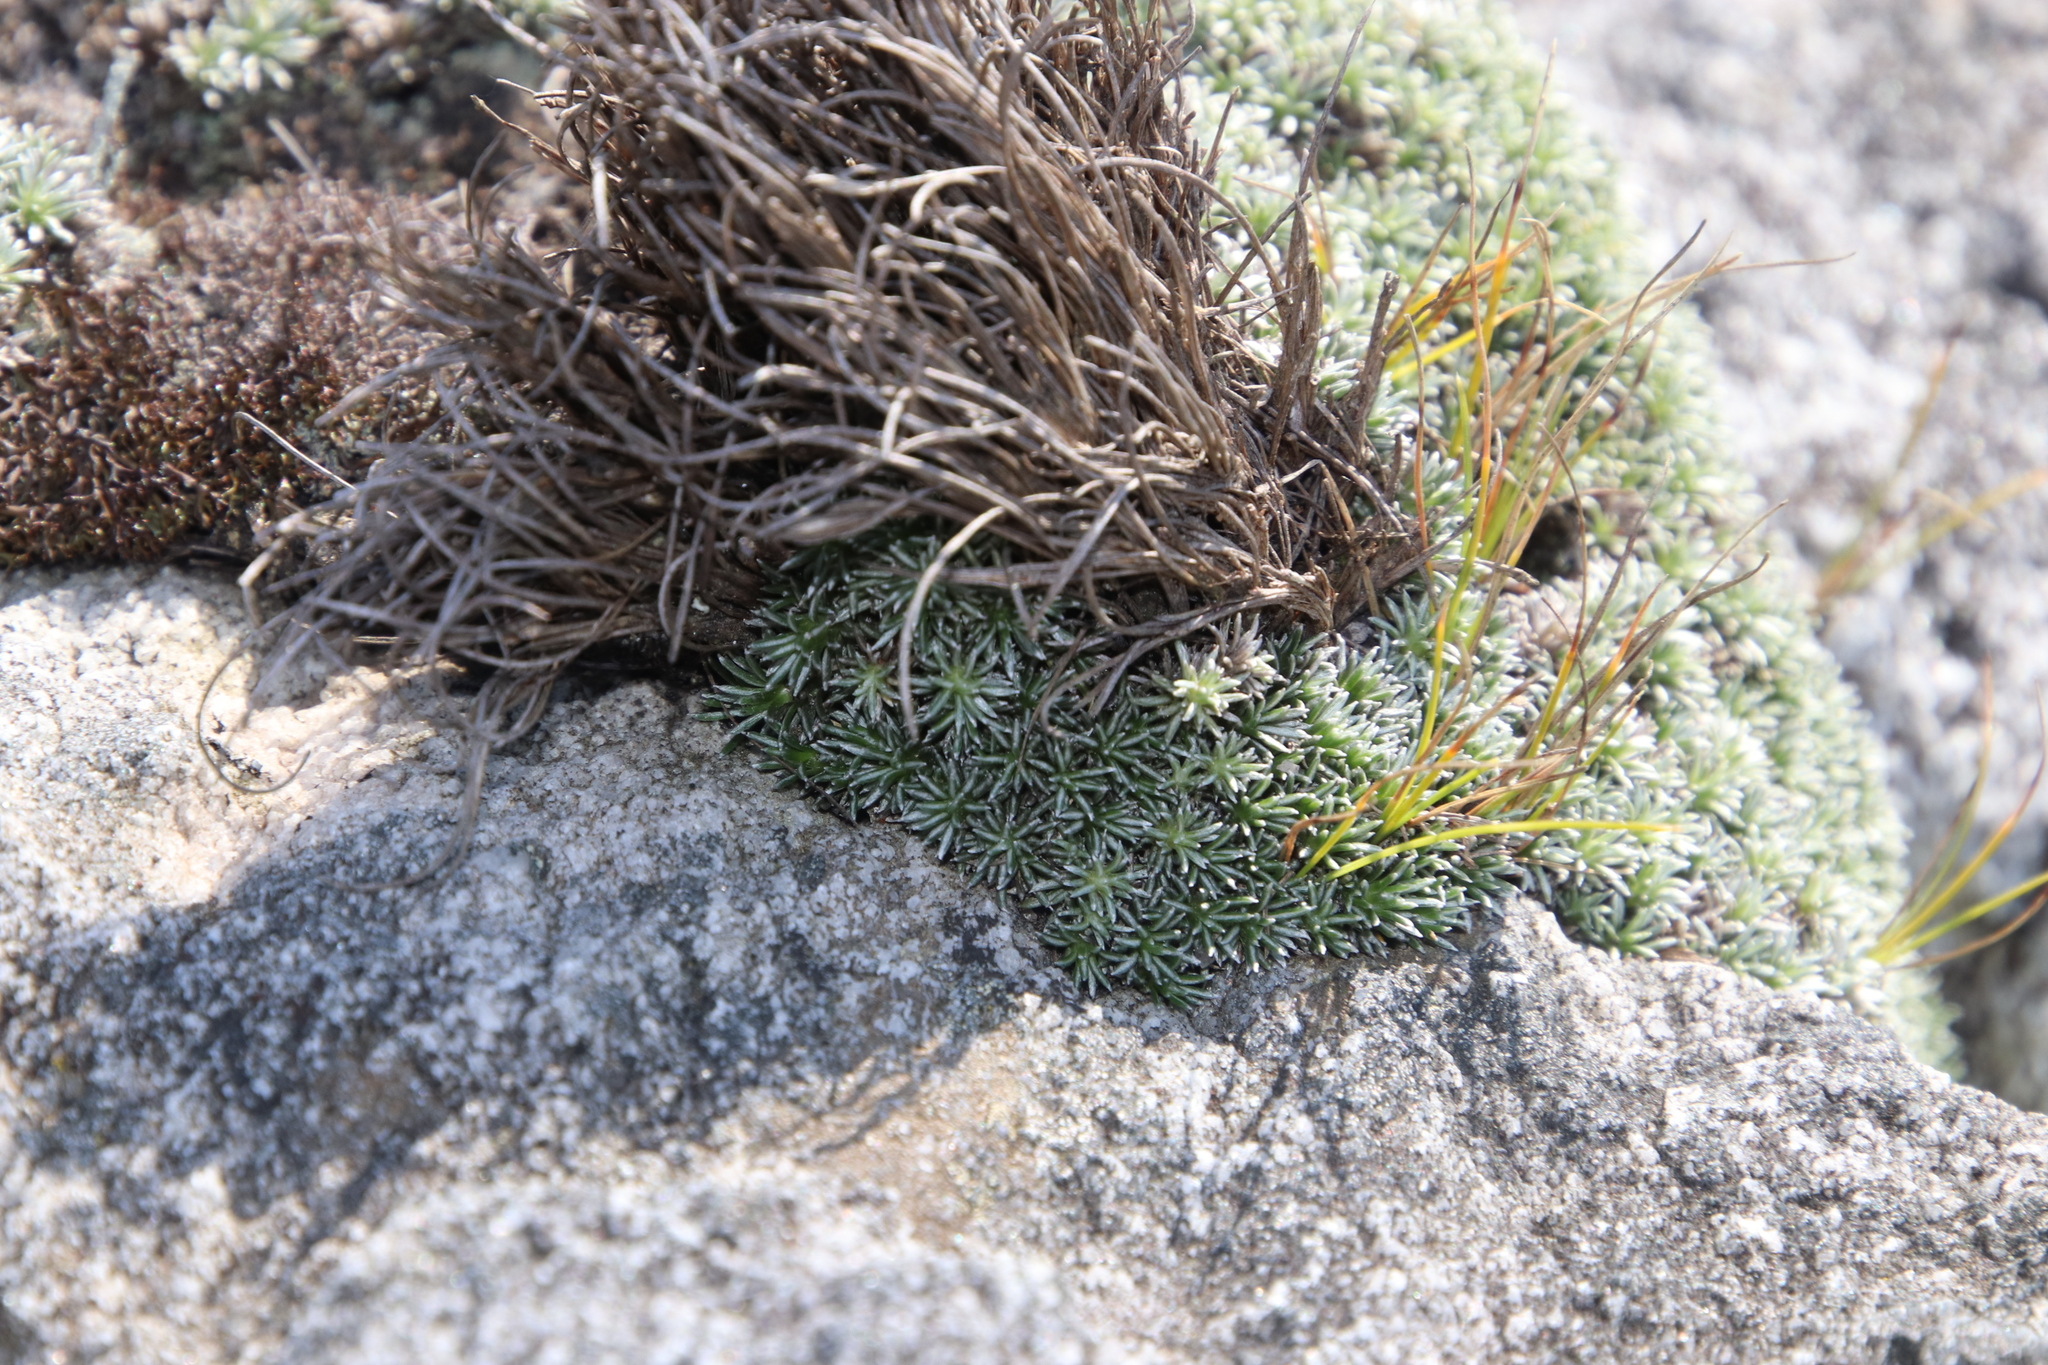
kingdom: Plantae
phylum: Tracheophyta
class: Magnoliopsida
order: Asterales
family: Asteraceae
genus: Muscosomorphe
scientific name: Muscosomorphe aretioides
